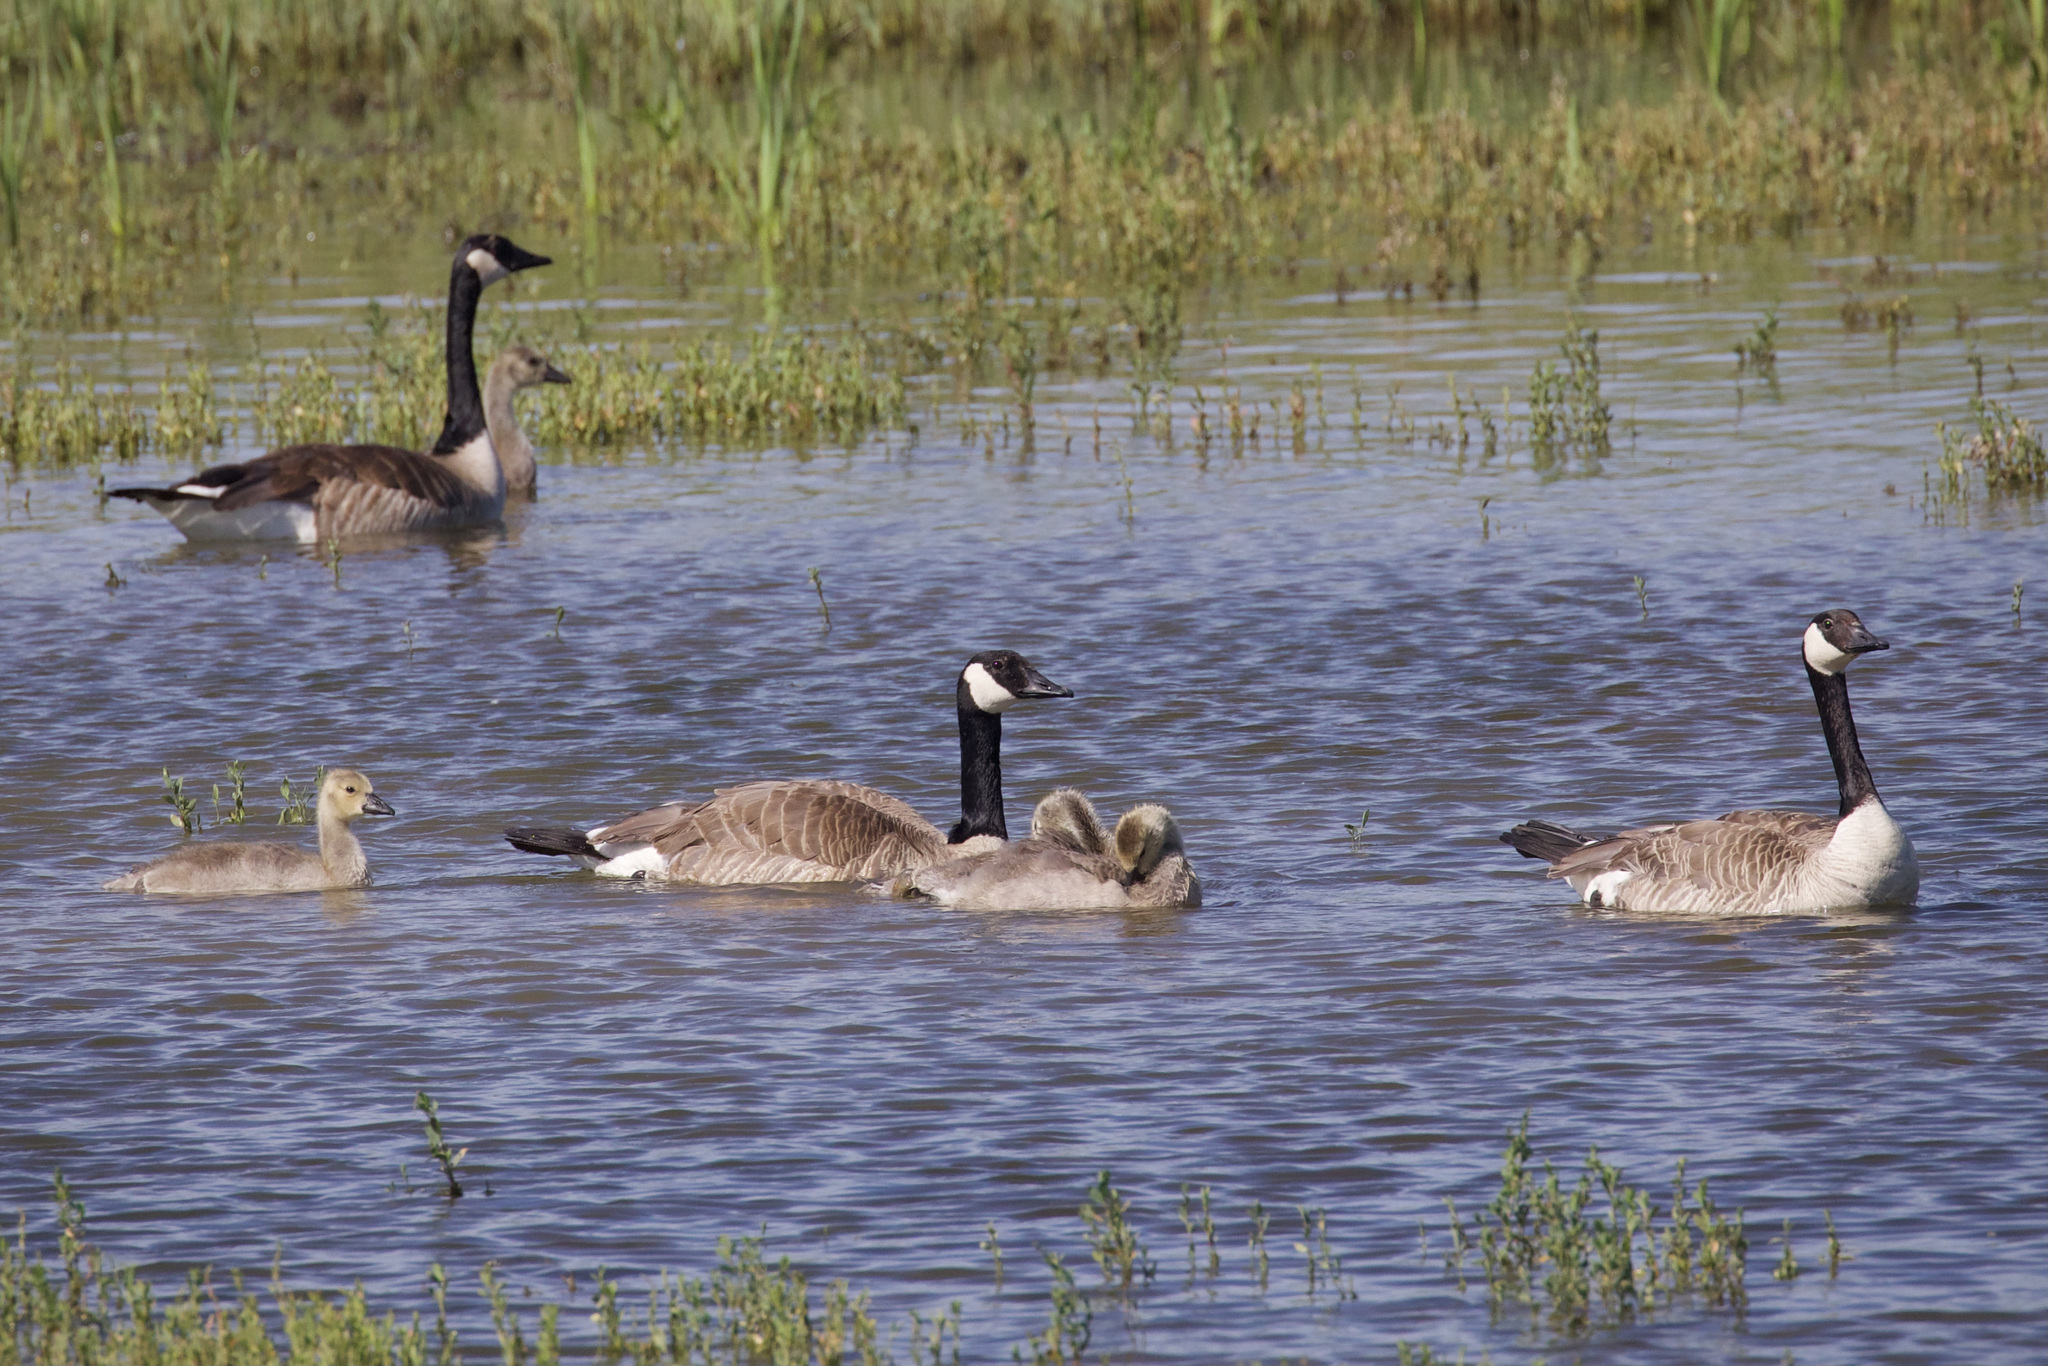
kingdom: Animalia
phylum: Chordata
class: Aves
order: Anseriformes
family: Anatidae
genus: Branta
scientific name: Branta canadensis
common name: Canada goose
